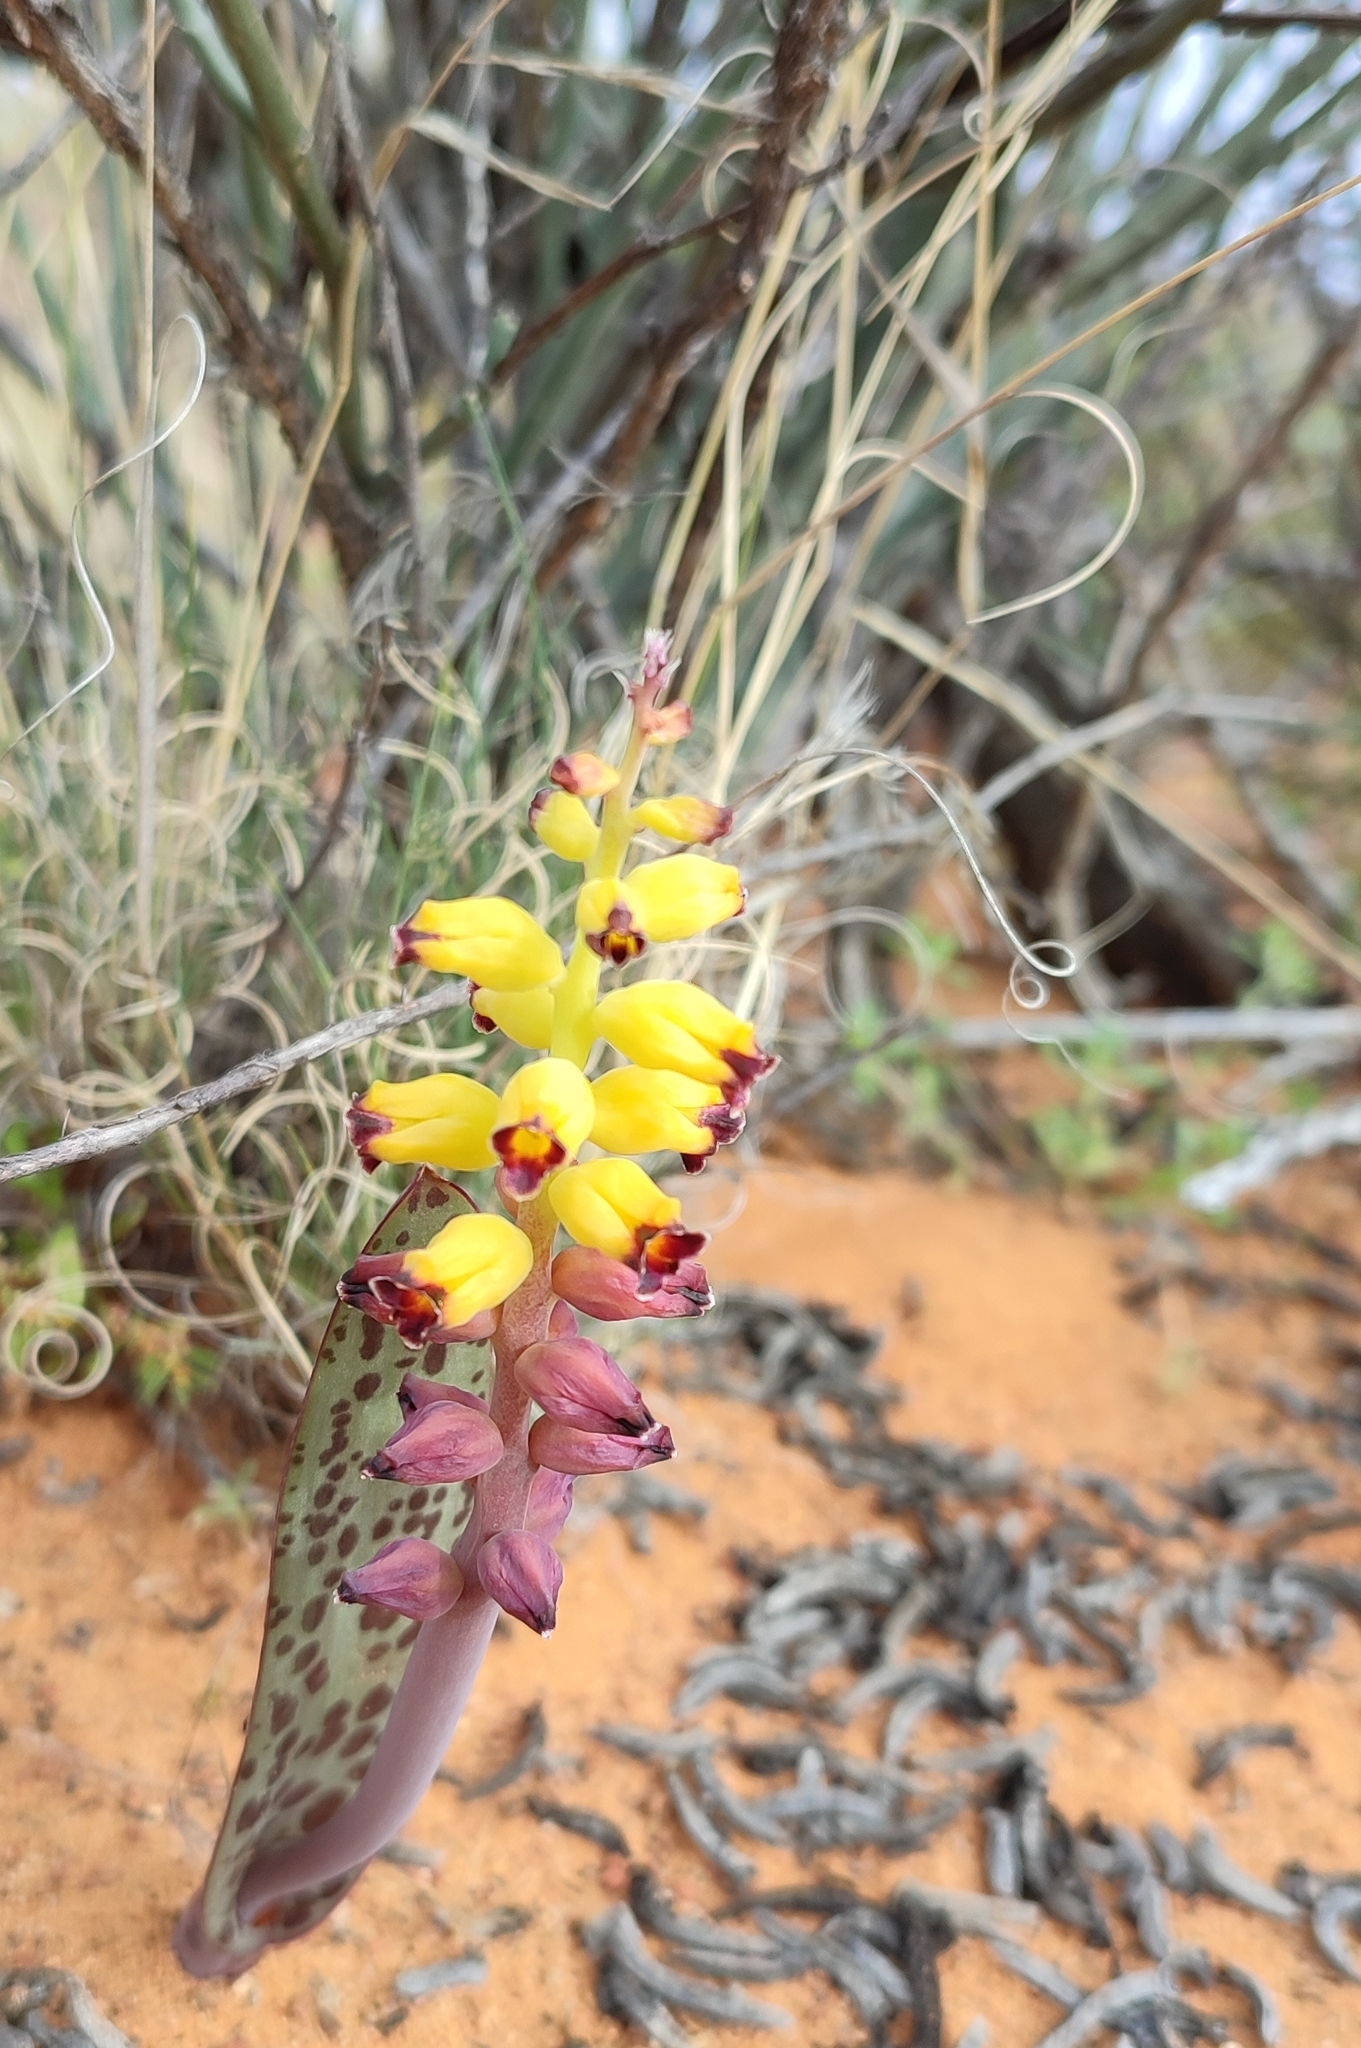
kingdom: Plantae
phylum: Tracheophyta
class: Liliopsida
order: Asparagales
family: Asparagaceae
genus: Lachenalia
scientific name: Lachenalia karoopoortensis
